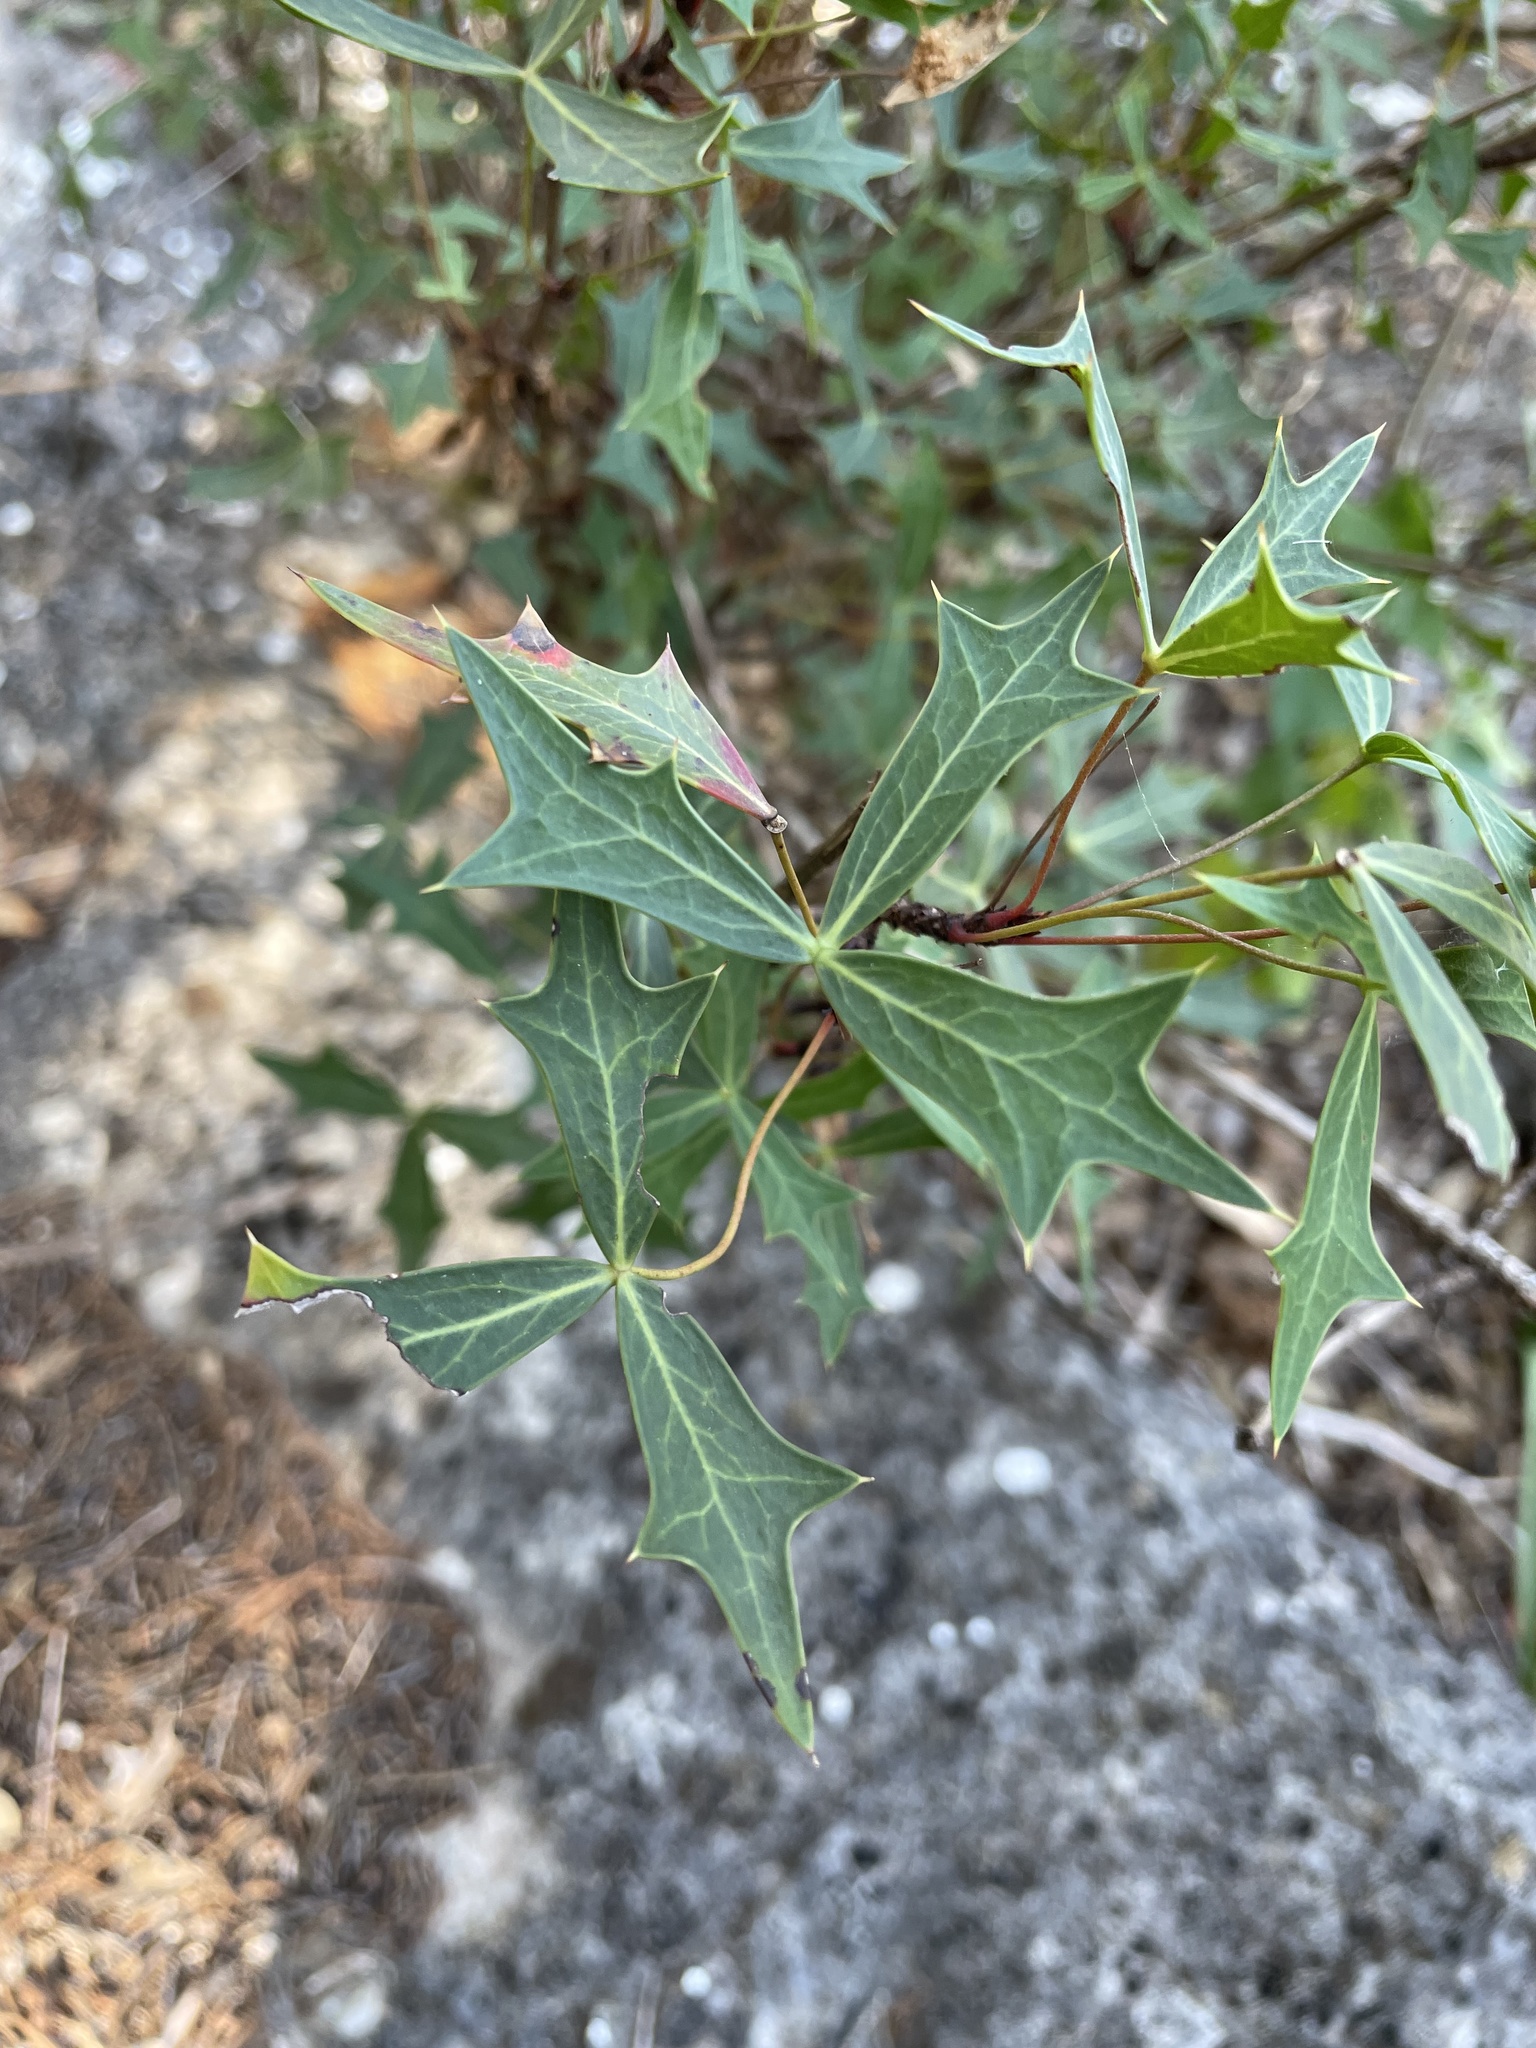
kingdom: Plantae
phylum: Tracheophyta
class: Magnoliopsida
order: Ranunculales
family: Berberidaceae
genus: Alloberberis
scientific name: Alloberberis trifoliolata
